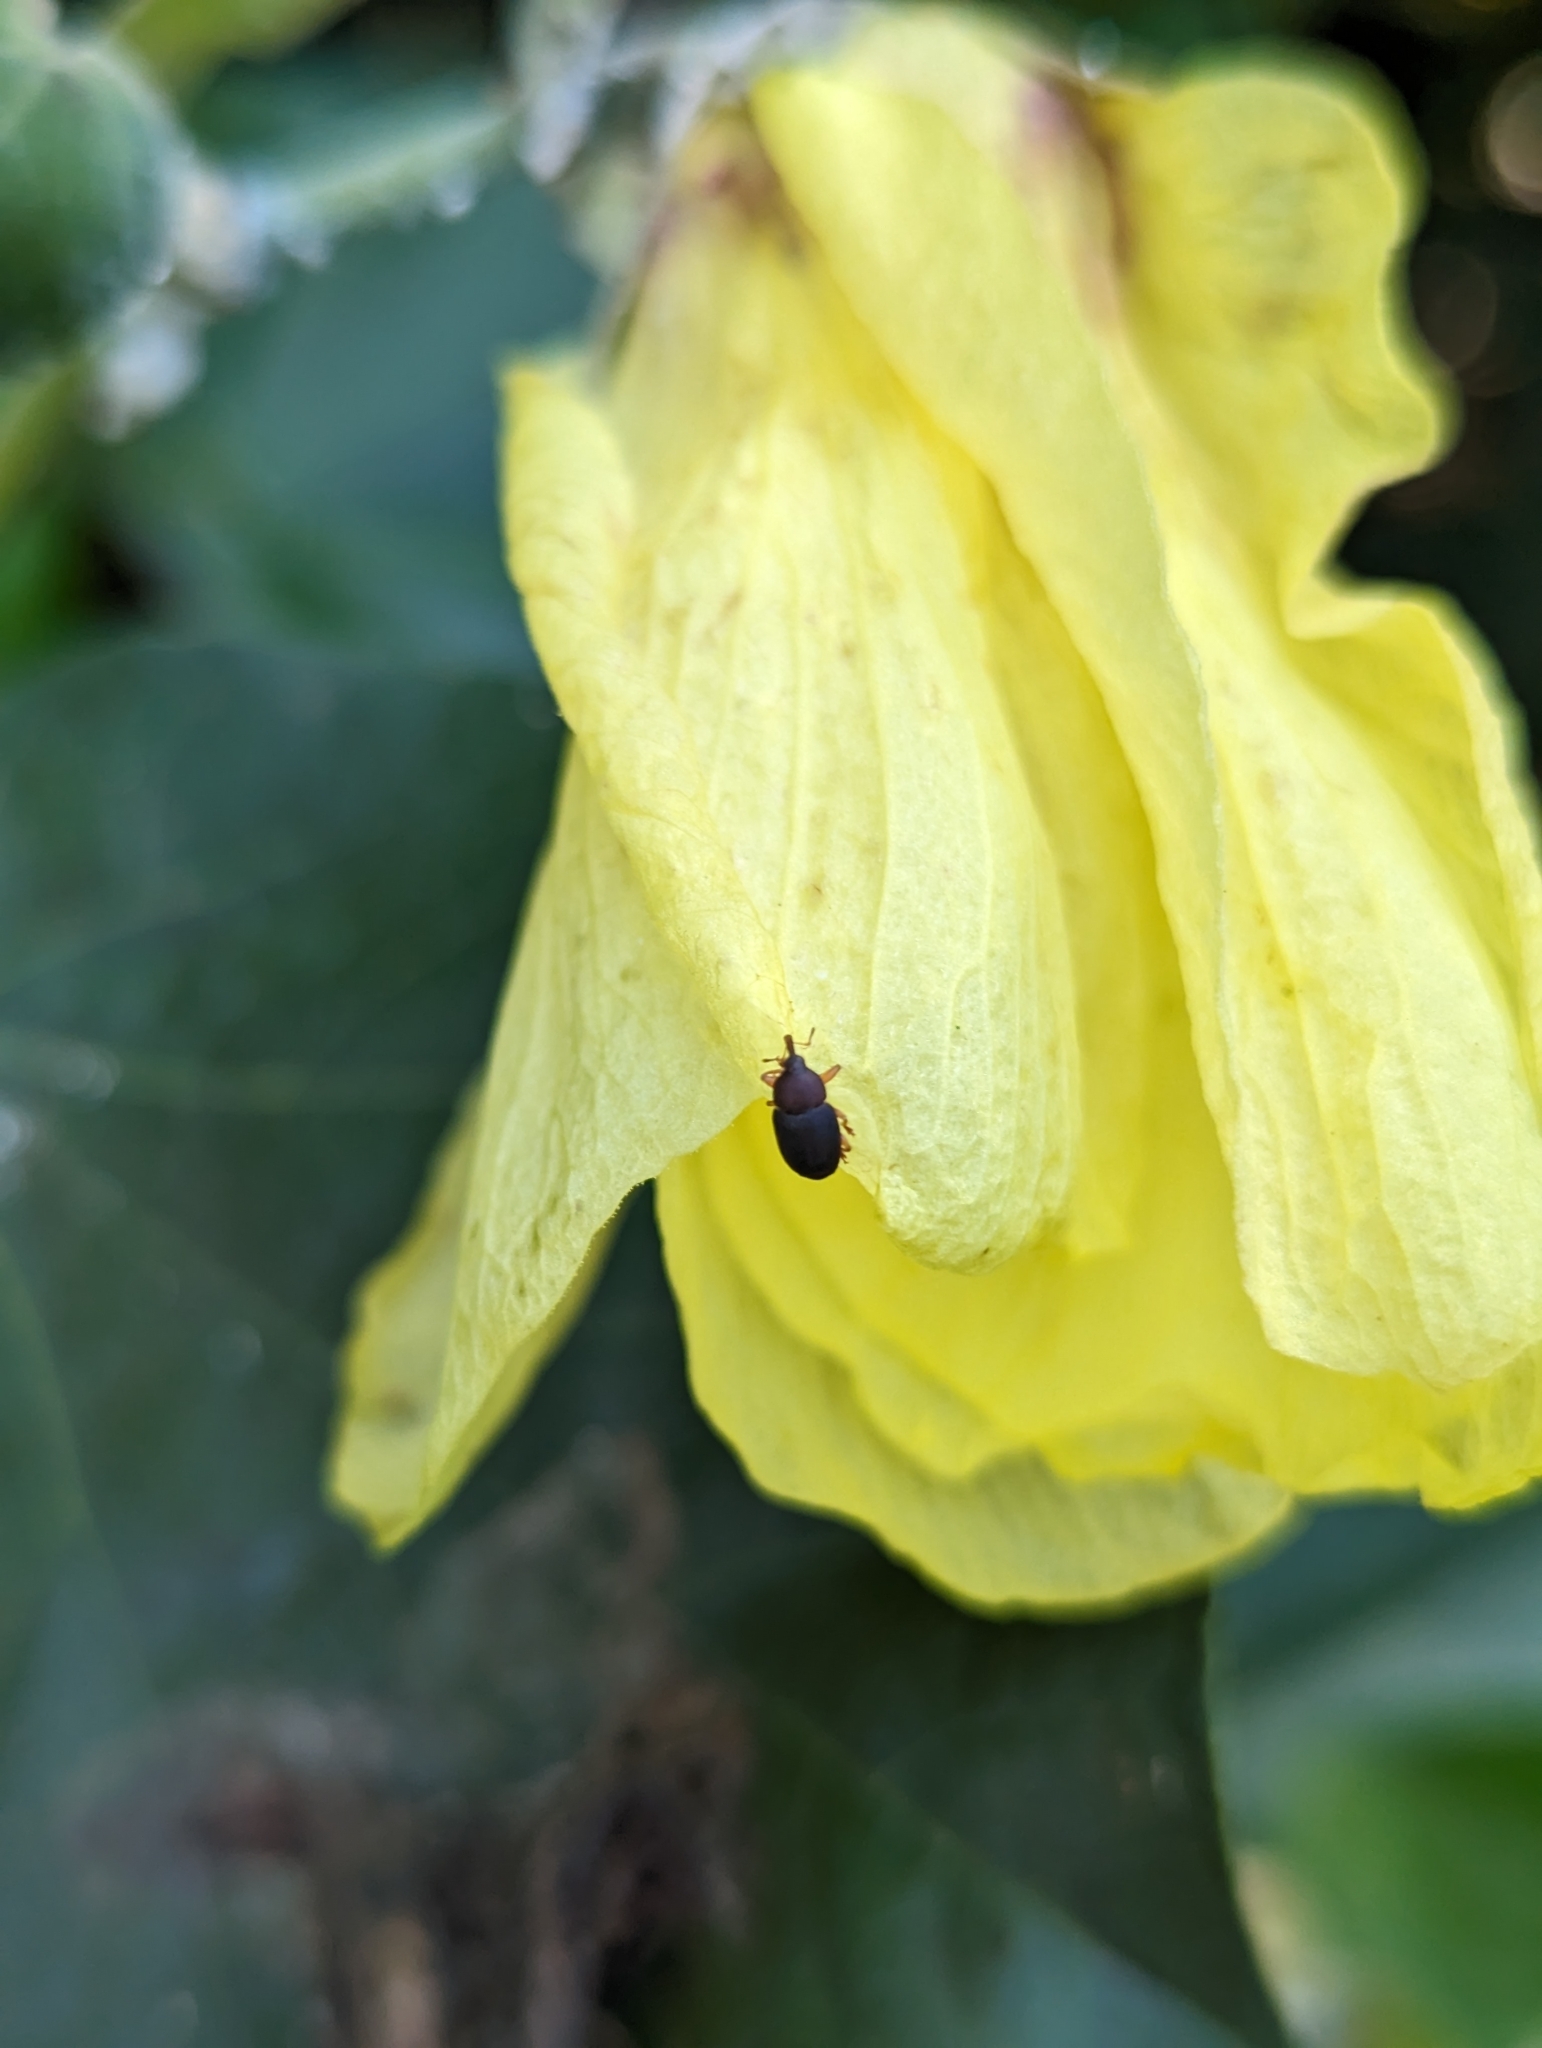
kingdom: Plantae
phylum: Tracheophyta
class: Magnoliopsida
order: Malvales
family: Malvaceae
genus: Talipariti
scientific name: Talipariti tiliaceum
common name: Sea hibiscus
